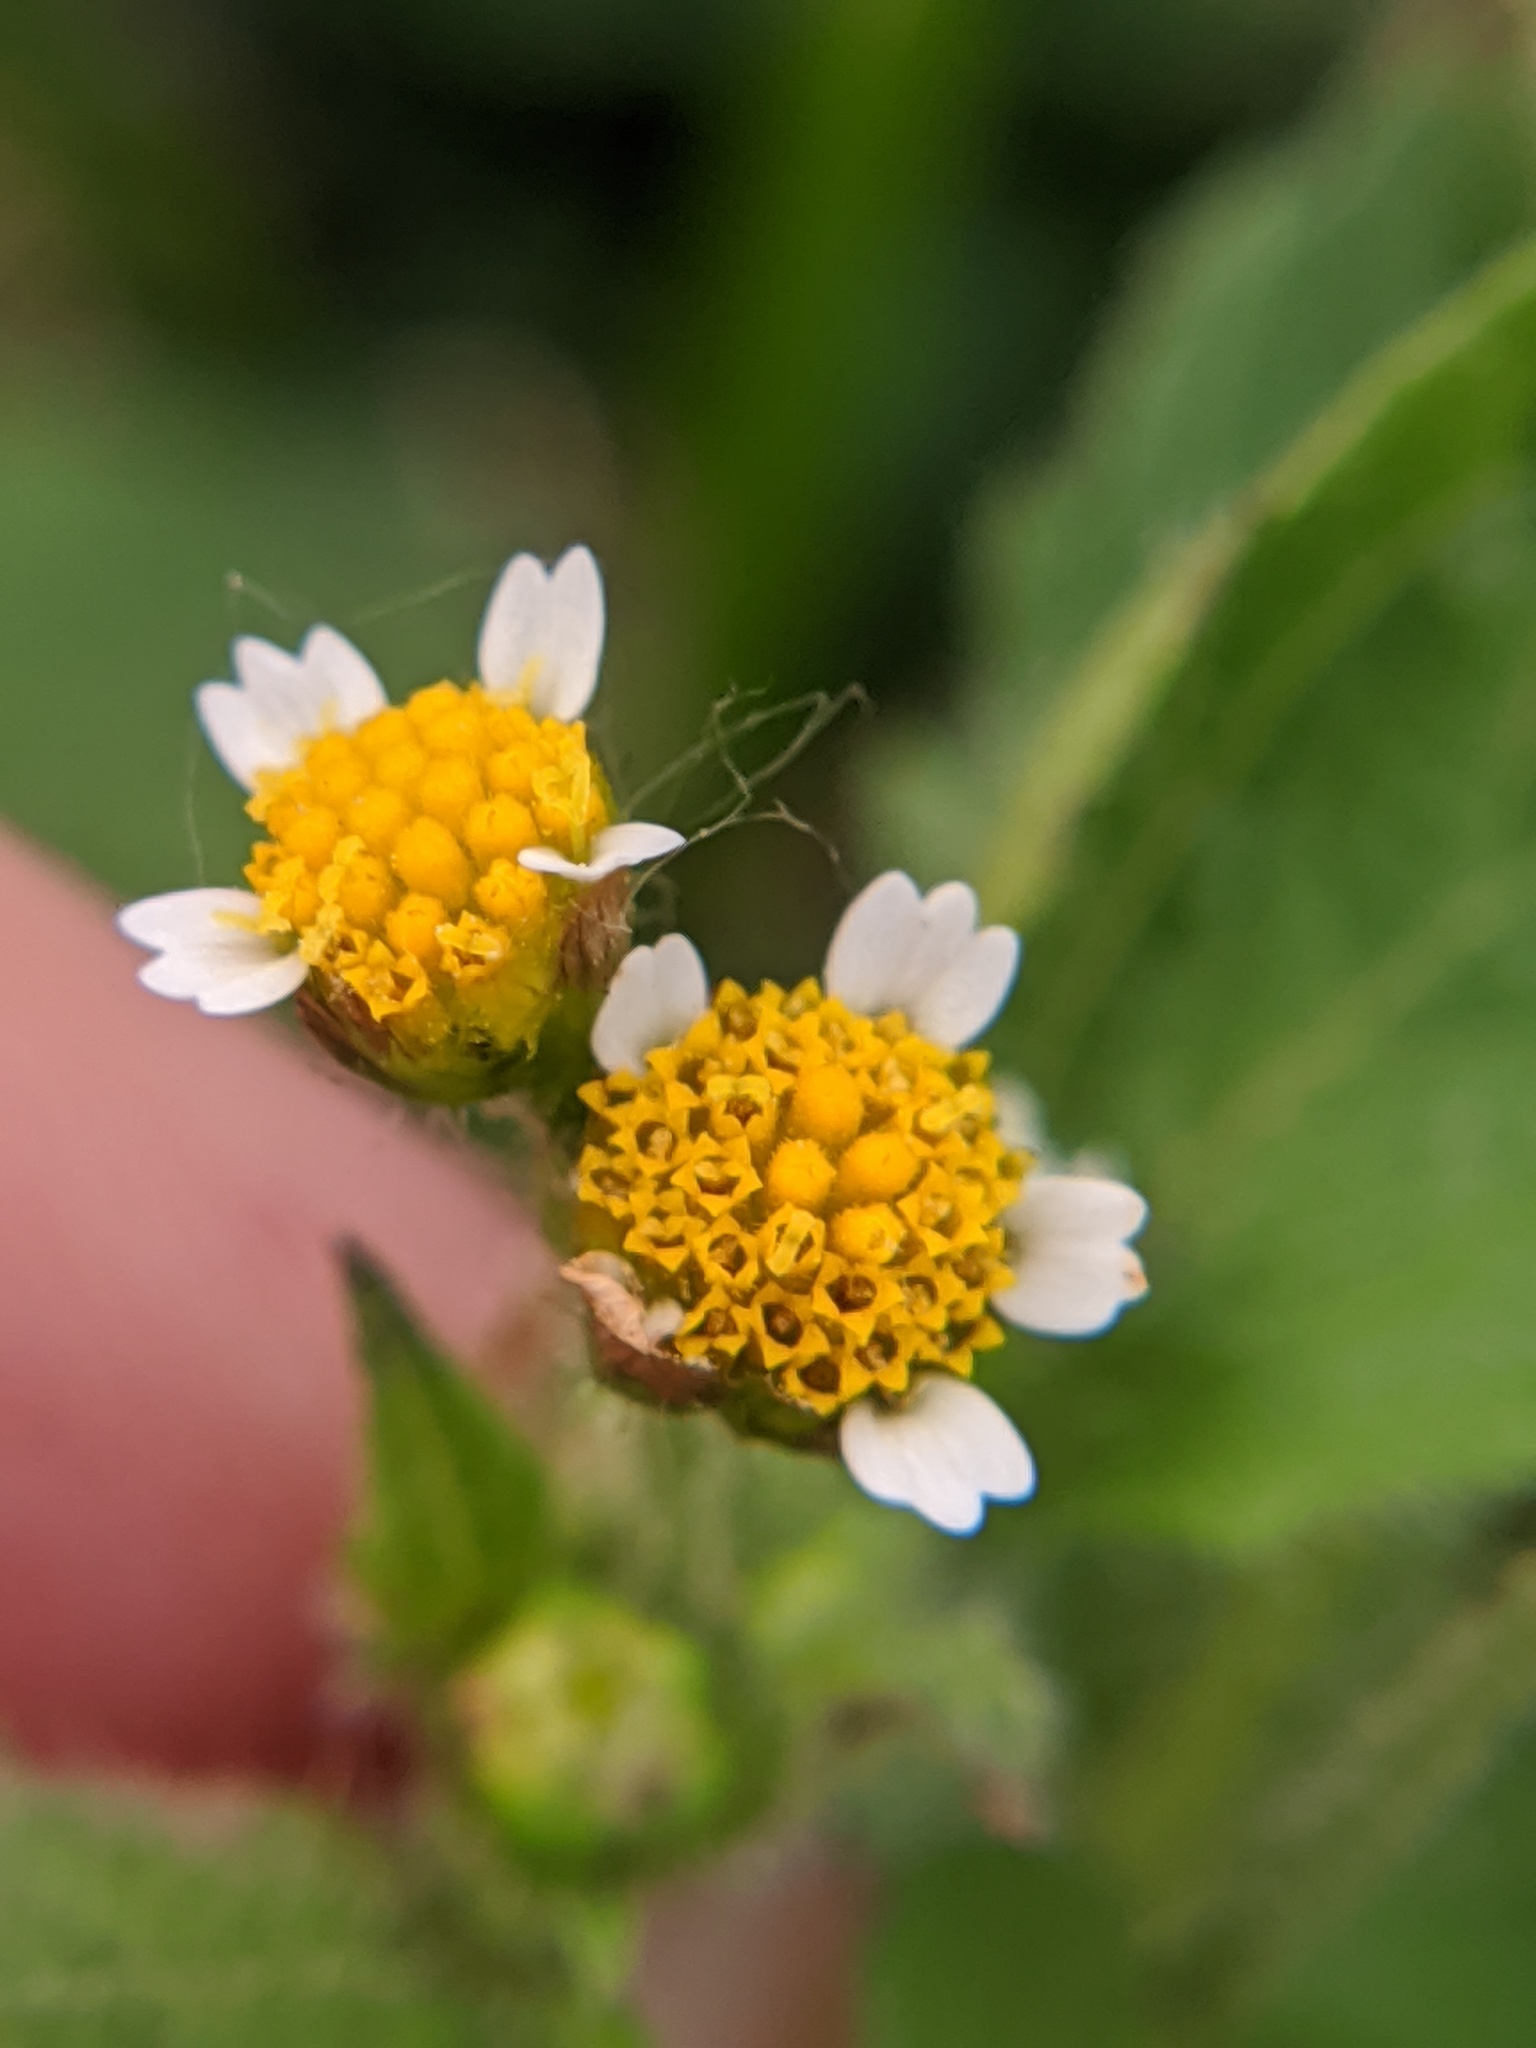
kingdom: Plantae
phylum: Tracheophyta
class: Magnoliopsida
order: Asterales
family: Asteraceae
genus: Galinsoga
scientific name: Galinsoga quadriradiata
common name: Shaggy soldier
